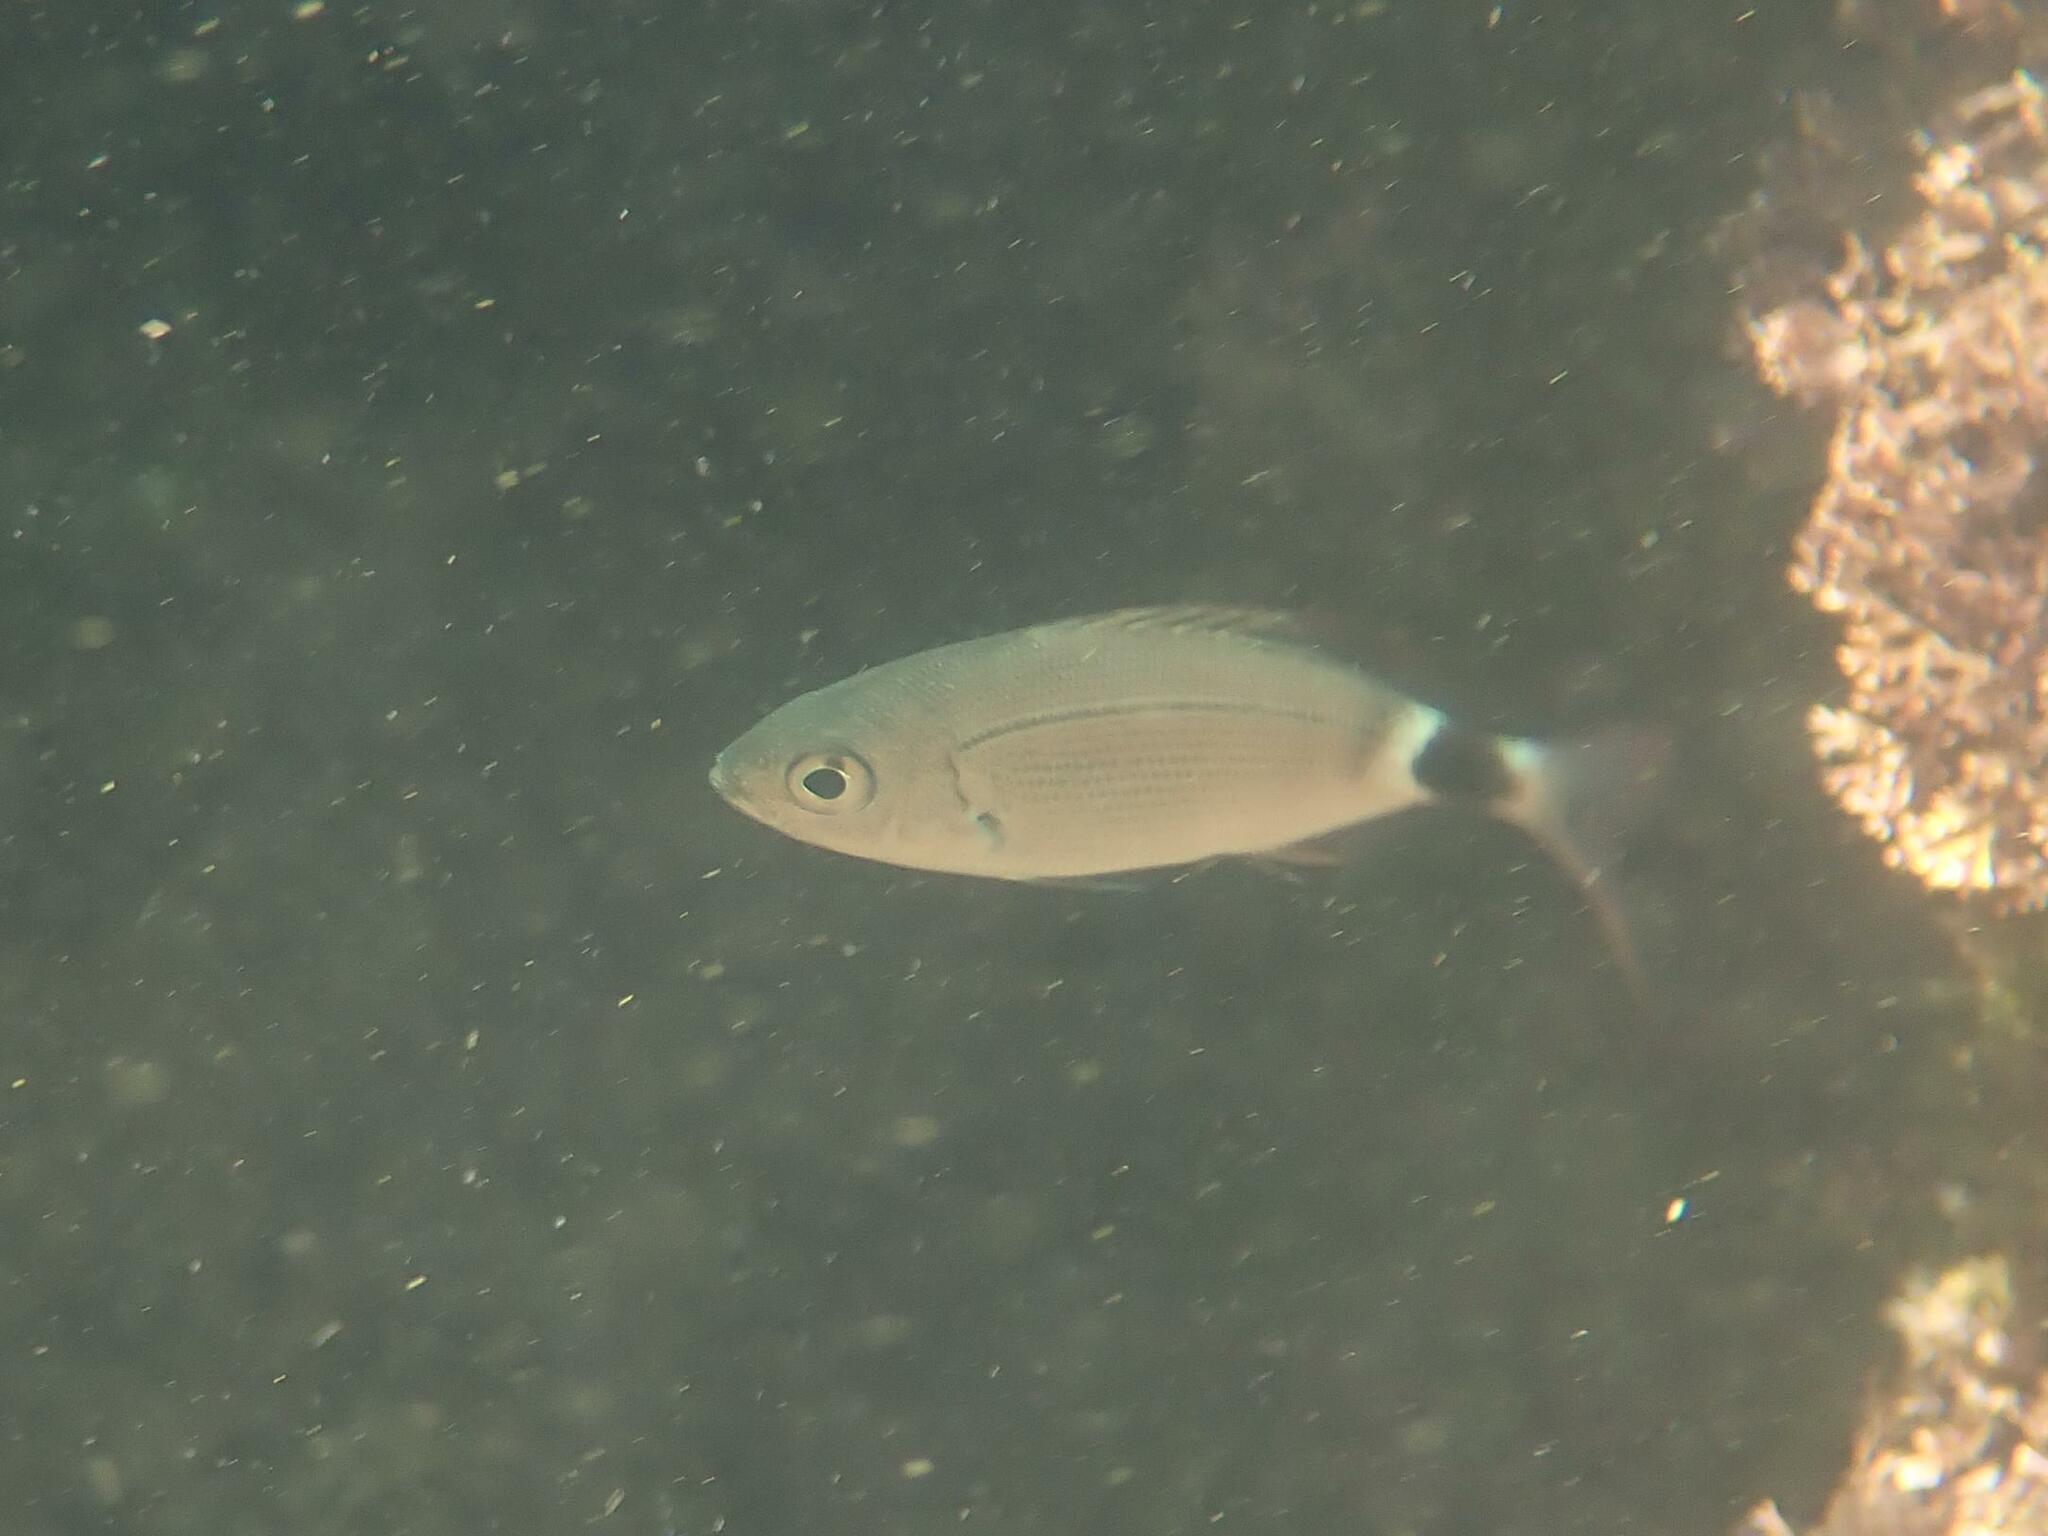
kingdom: Animalia
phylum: Chordata
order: Perciformes
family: Sparidae
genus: Oblada
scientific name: Oblada melanura
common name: Saddled seabream
